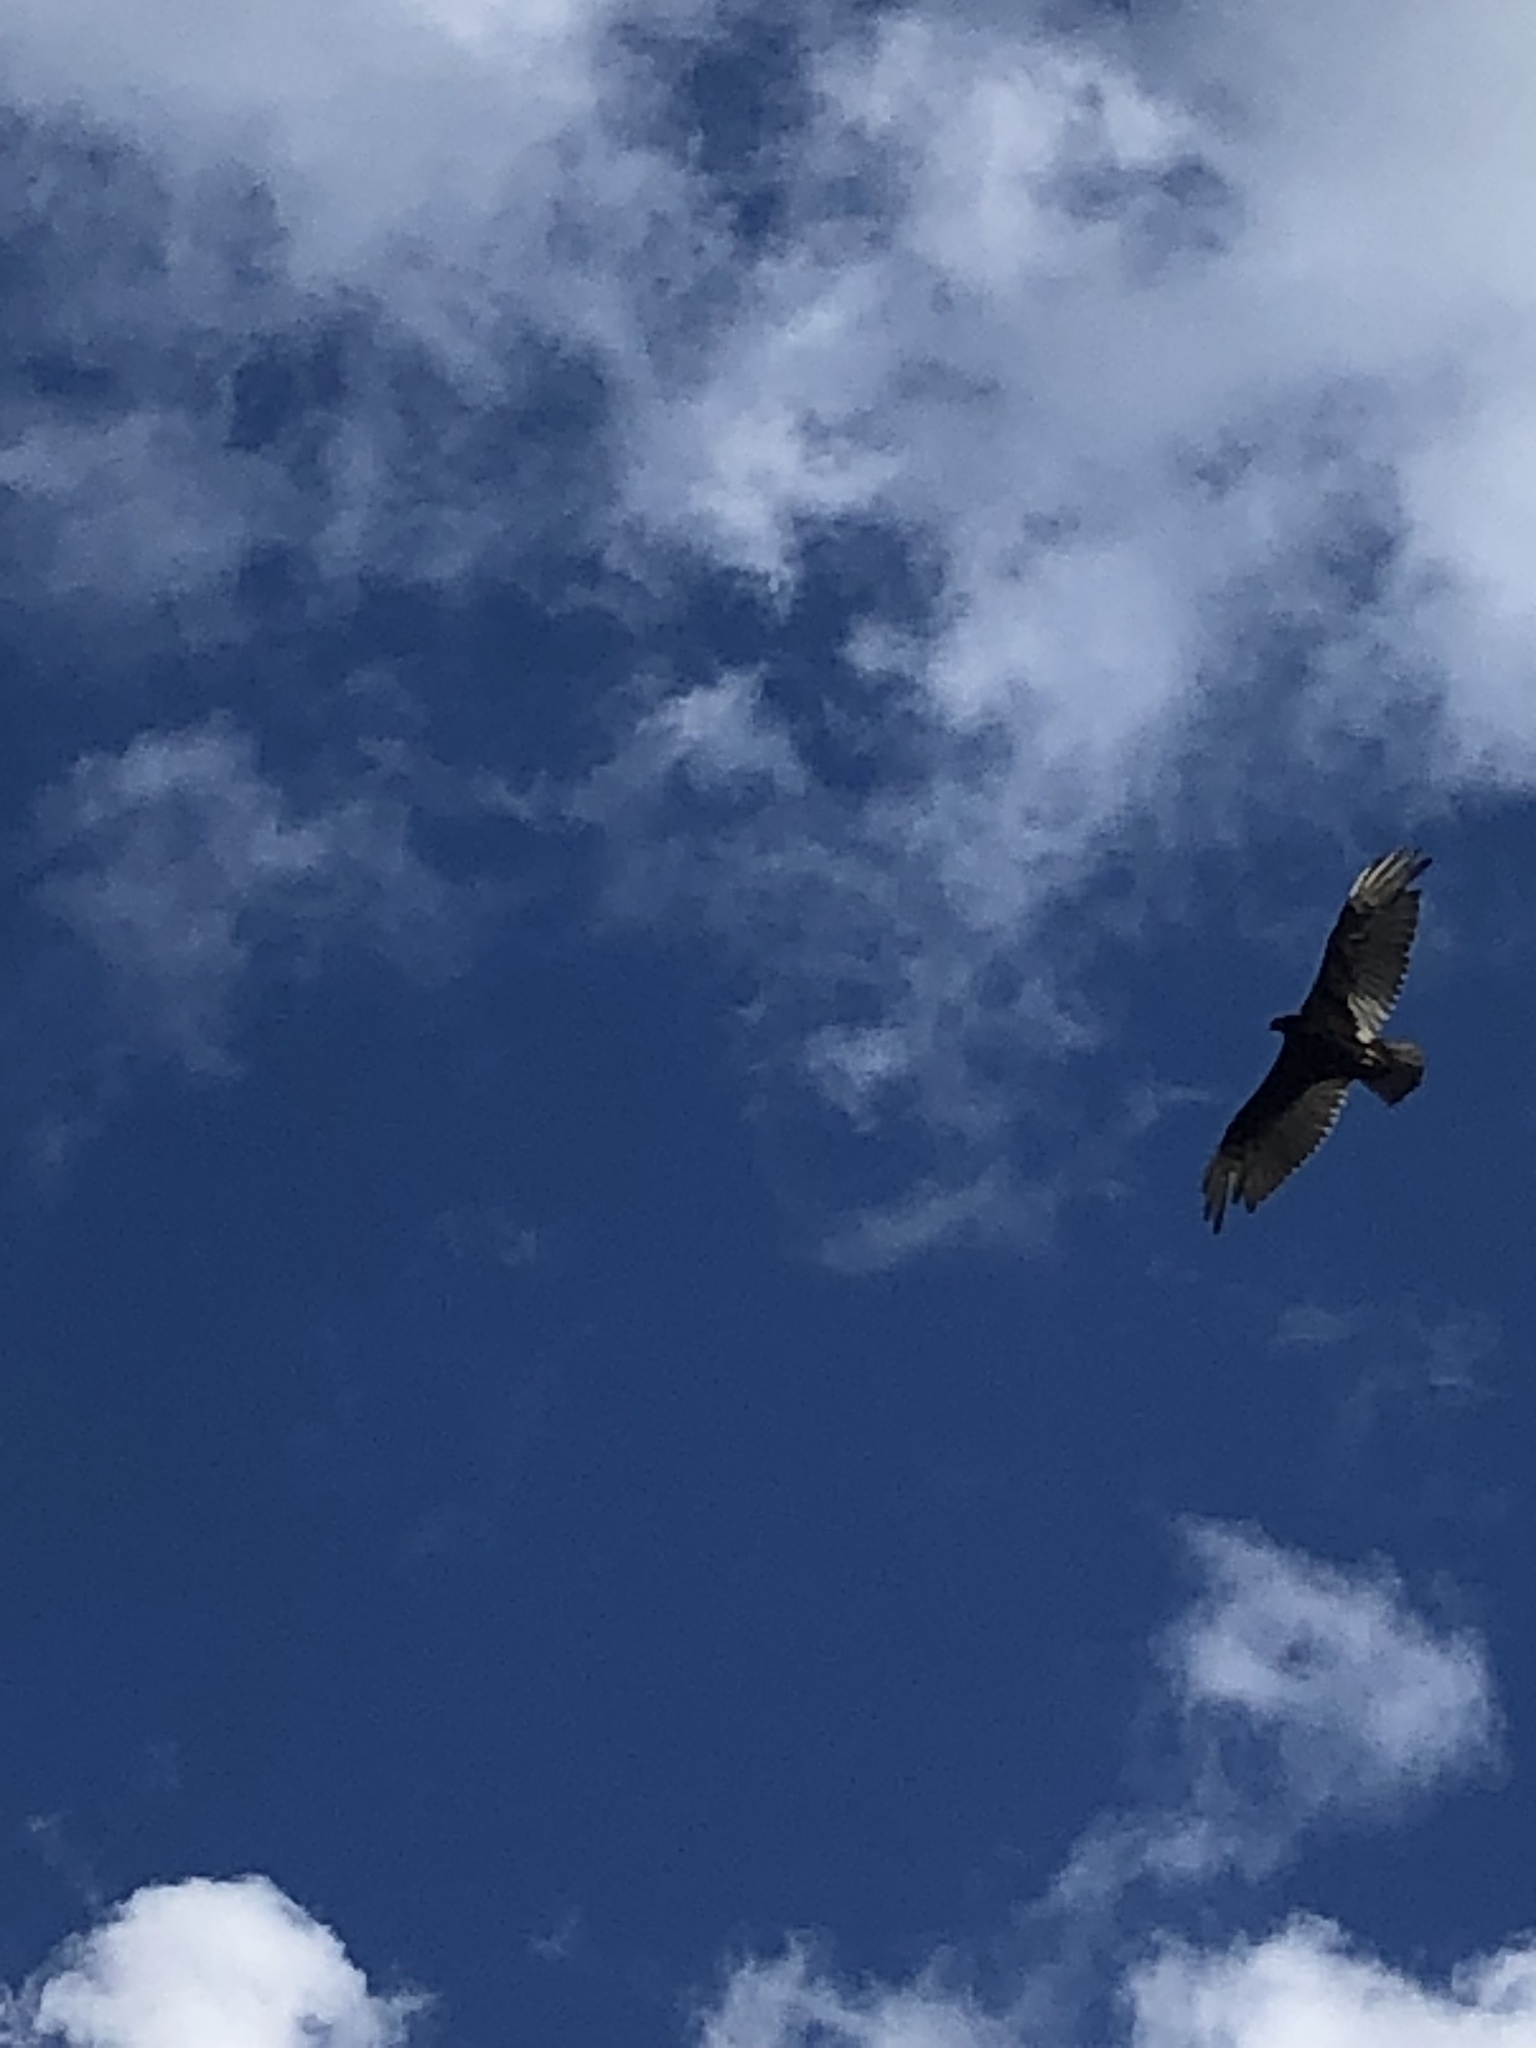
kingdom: Animalia
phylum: Chordata
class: Aves
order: Accipitriformes
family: Cathartidae
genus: Cathartes
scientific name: Cathartes aura
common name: Turkey vulture
